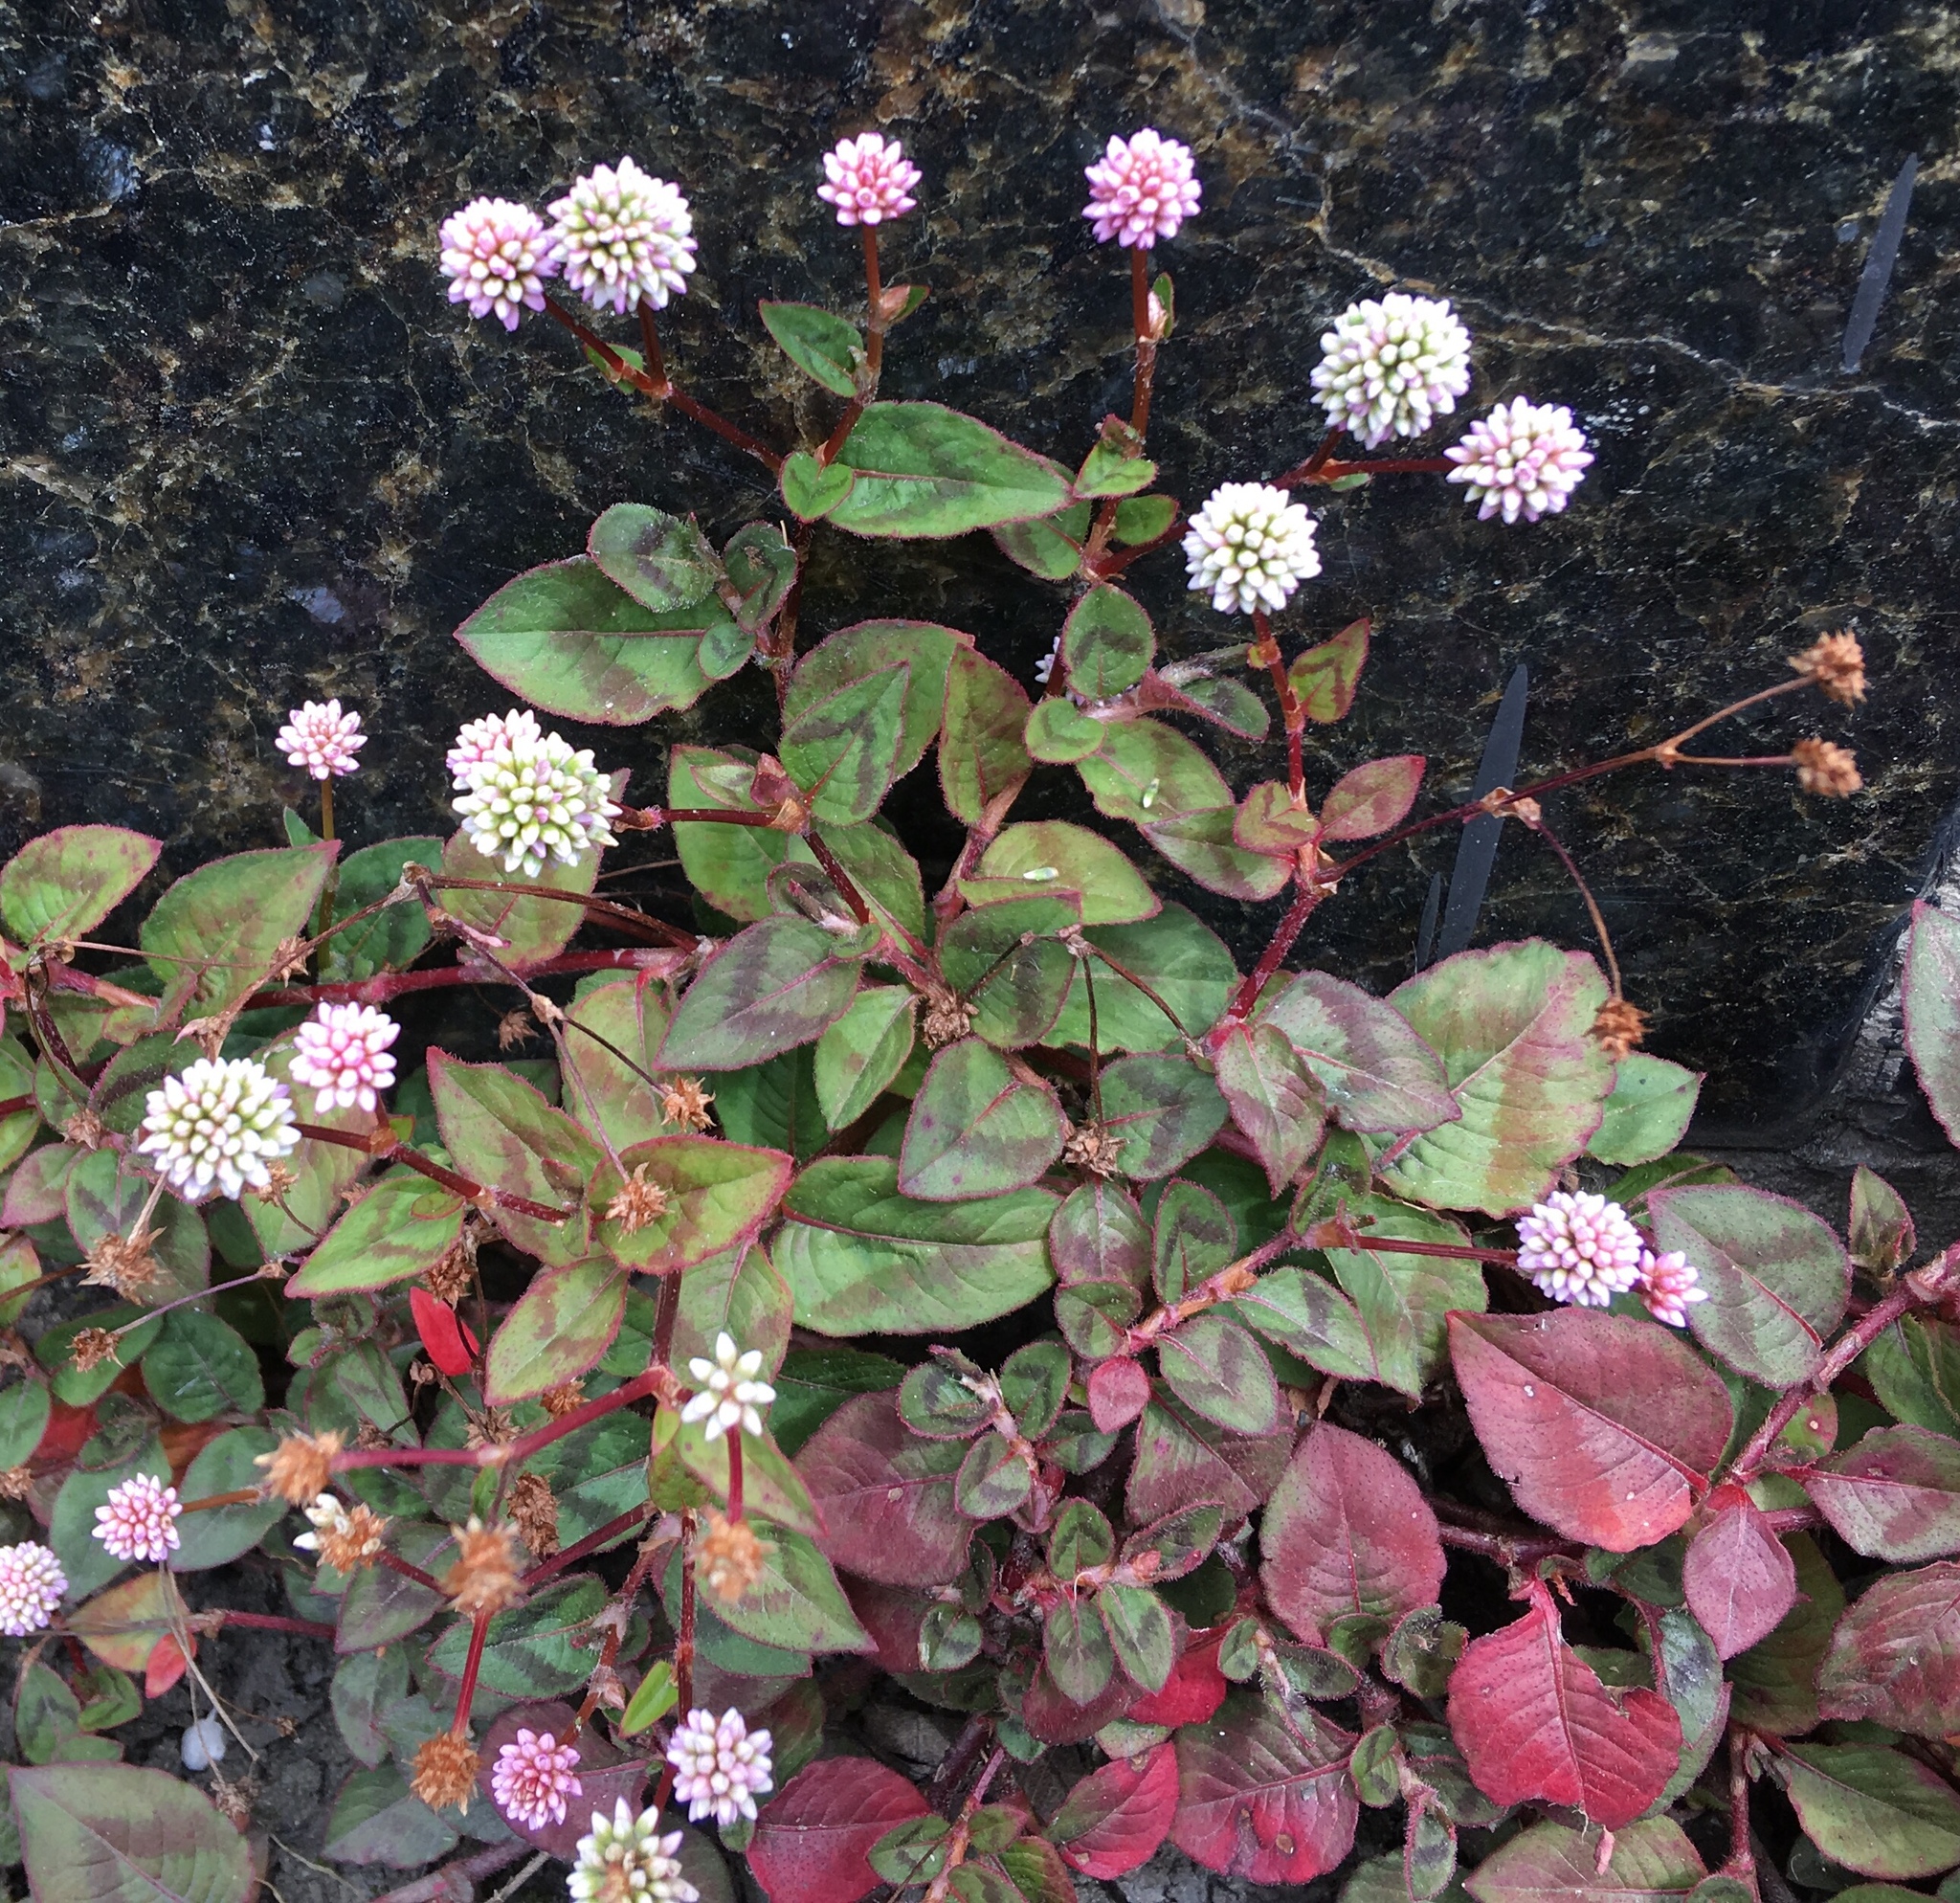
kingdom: Plantae
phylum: Tracheophyta
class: Magnoliopsida
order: Caryophyllales
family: Polygonaceae
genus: Persicaria
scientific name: Persicaria capitata
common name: Pinkhead smartweed
